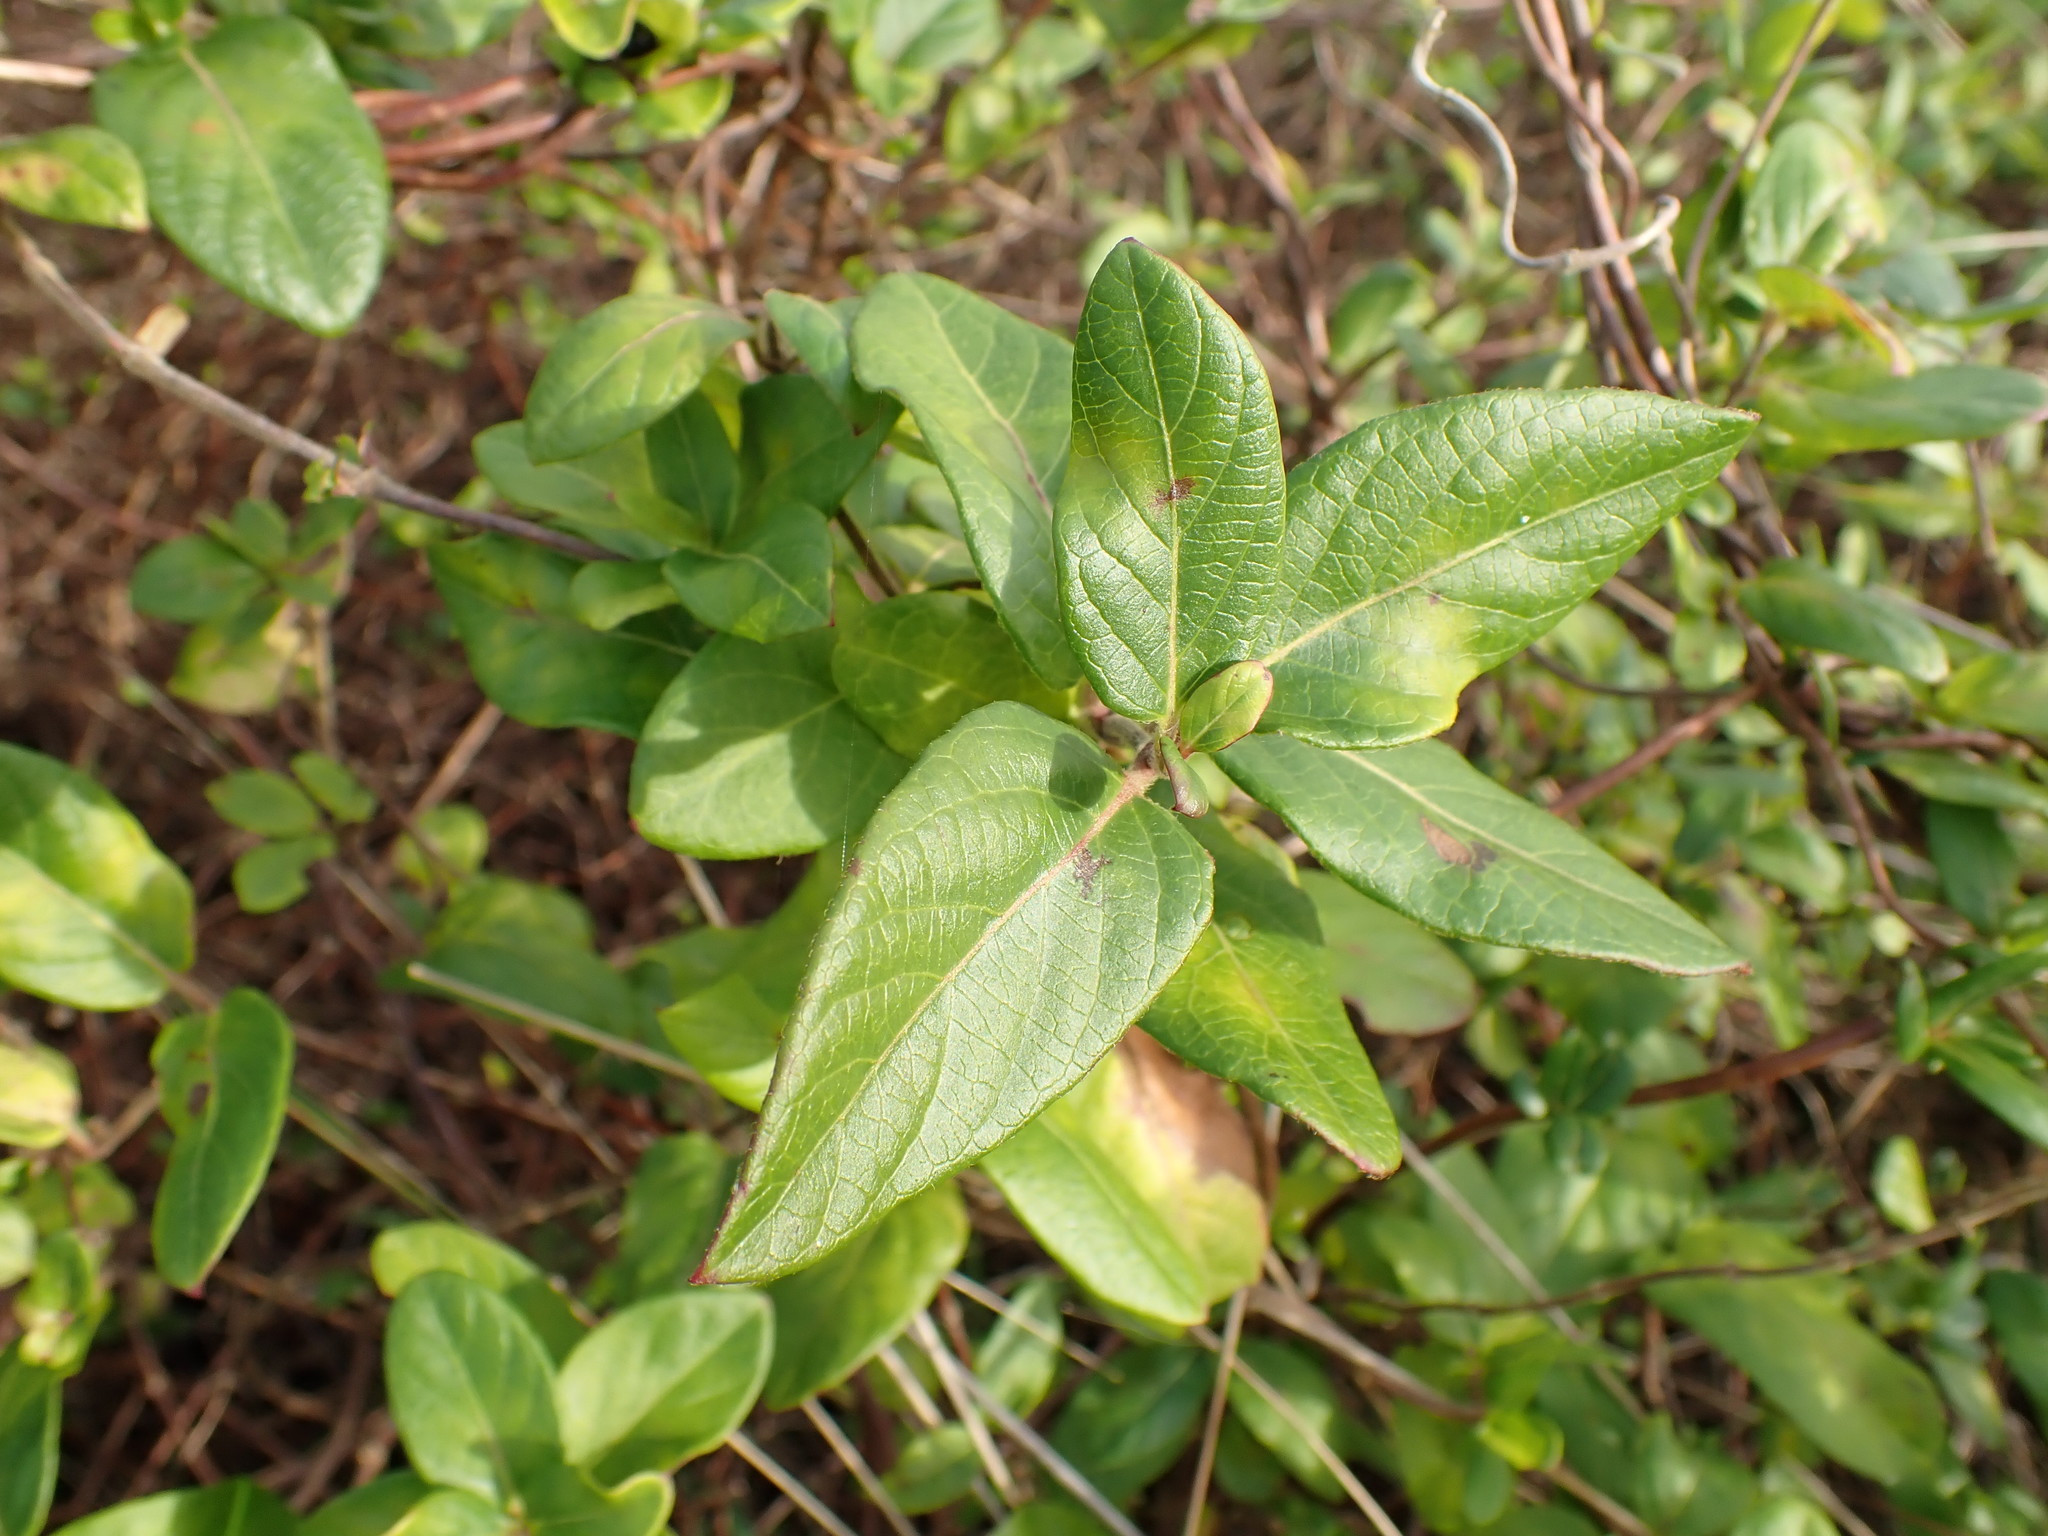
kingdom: Plantae
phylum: Tracheophyta
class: Magnoliopsida
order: Dipsacales
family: Caprifoliaceae
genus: Lonicera
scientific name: Lonicera japonica
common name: Japanese honeysuckle
